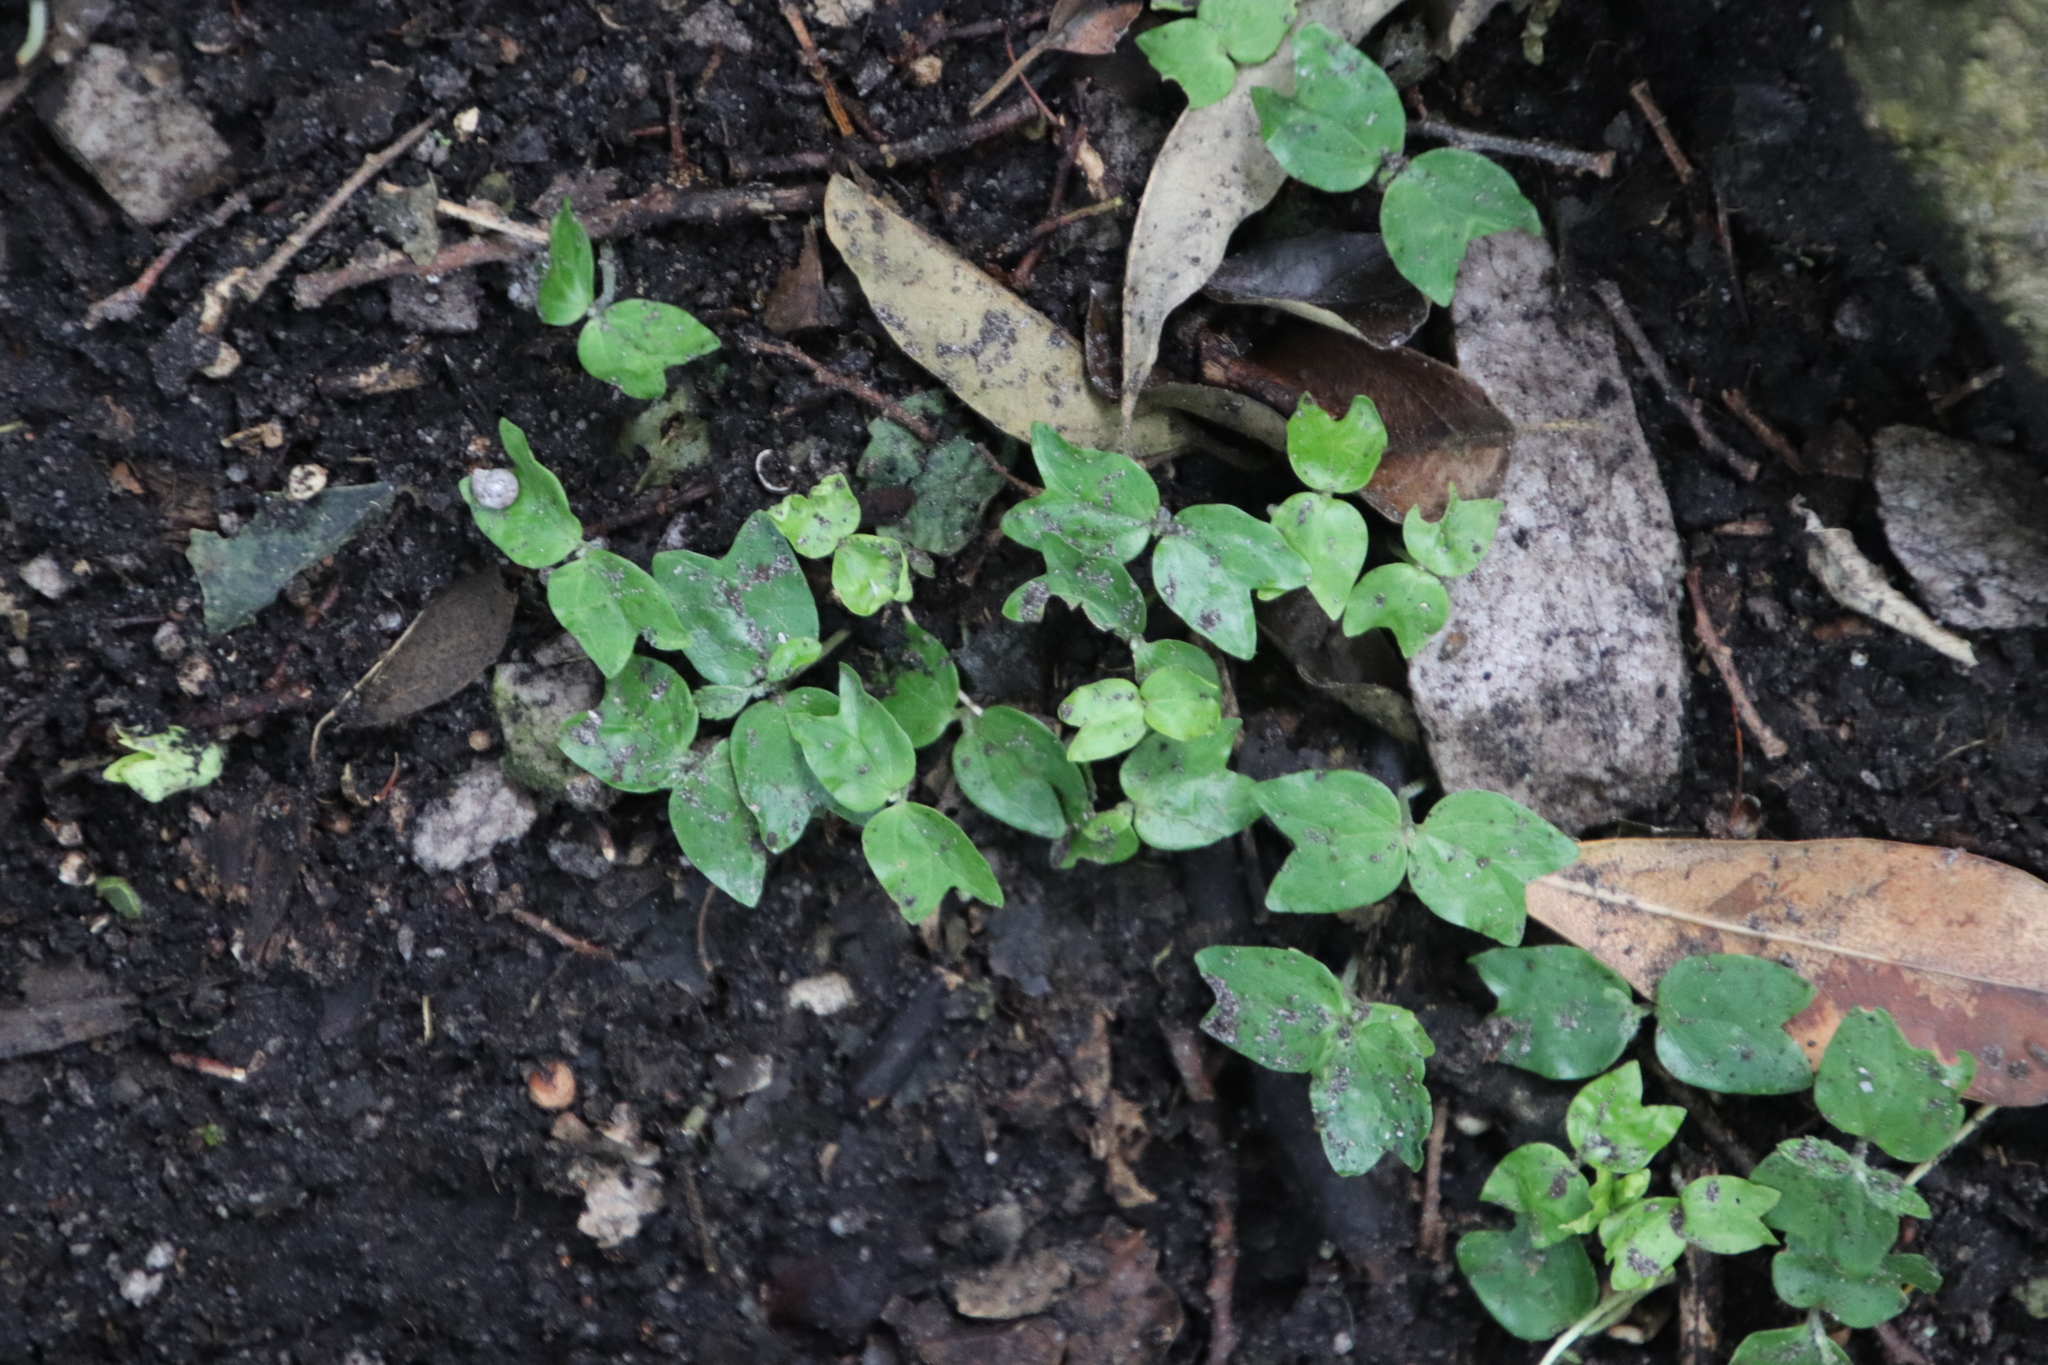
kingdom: Plantae
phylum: Tracheophyta
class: Magnoliopsida
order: Rosales
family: Cannabaceae
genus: Celtis
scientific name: Celtis africana
